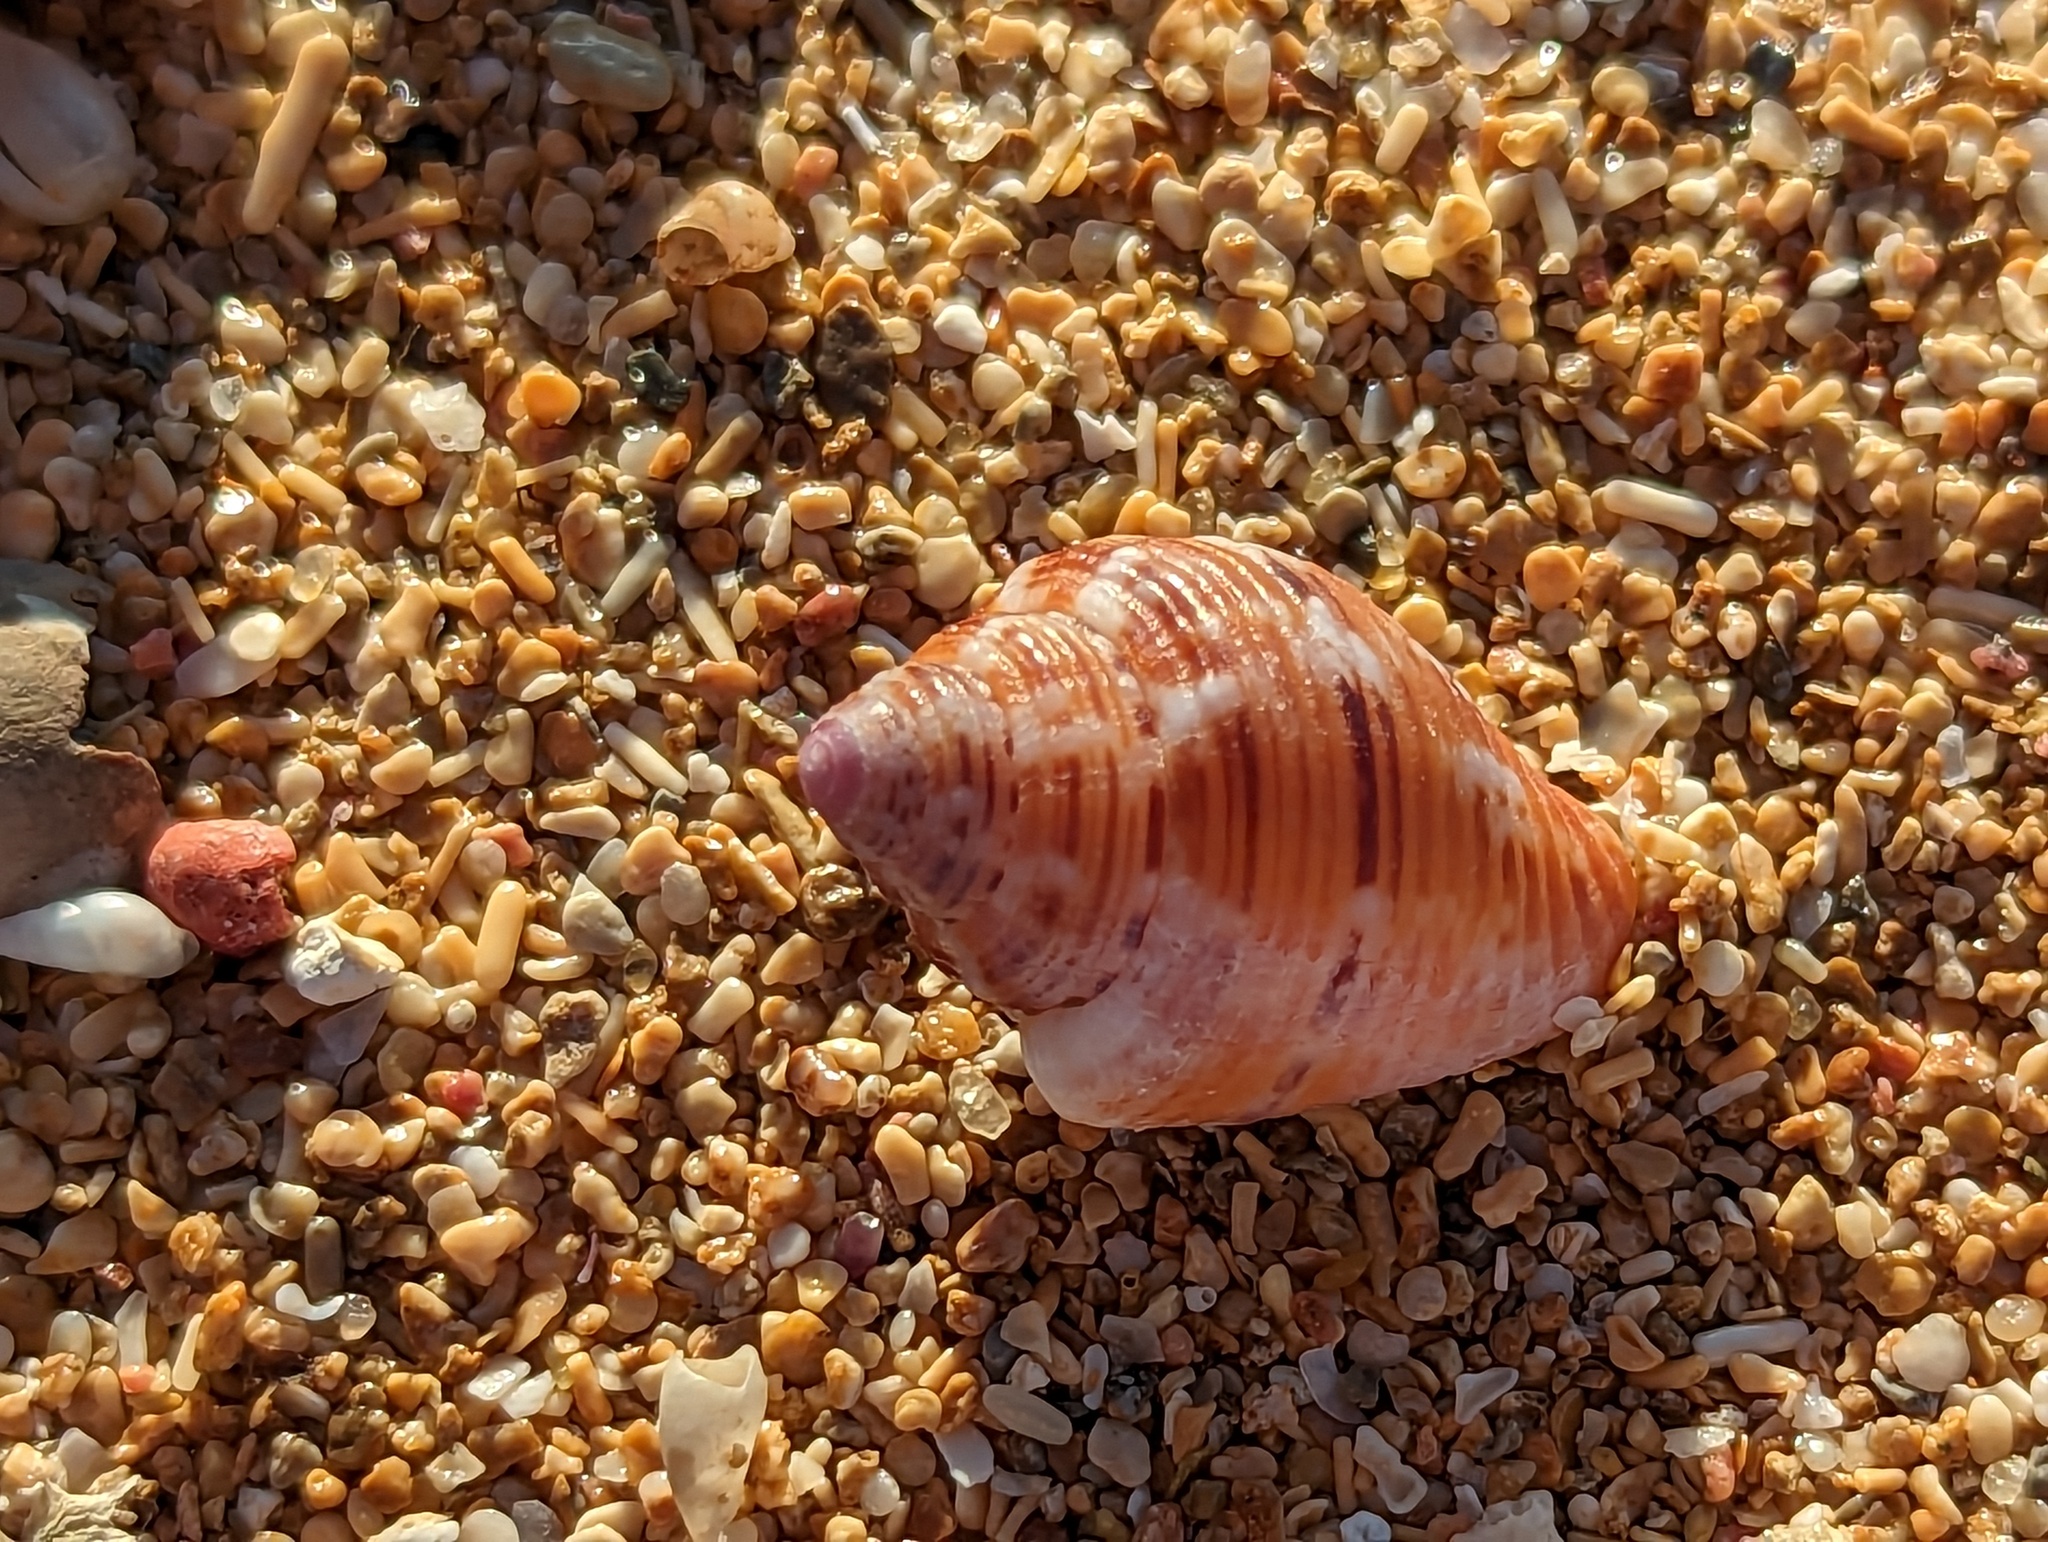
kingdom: Animalia
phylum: Mollusca
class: Gastropoda
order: Neogastropoda
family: Columbellidae
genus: Columbella
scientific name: Columbella mercatoria
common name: West indian dovesnail
